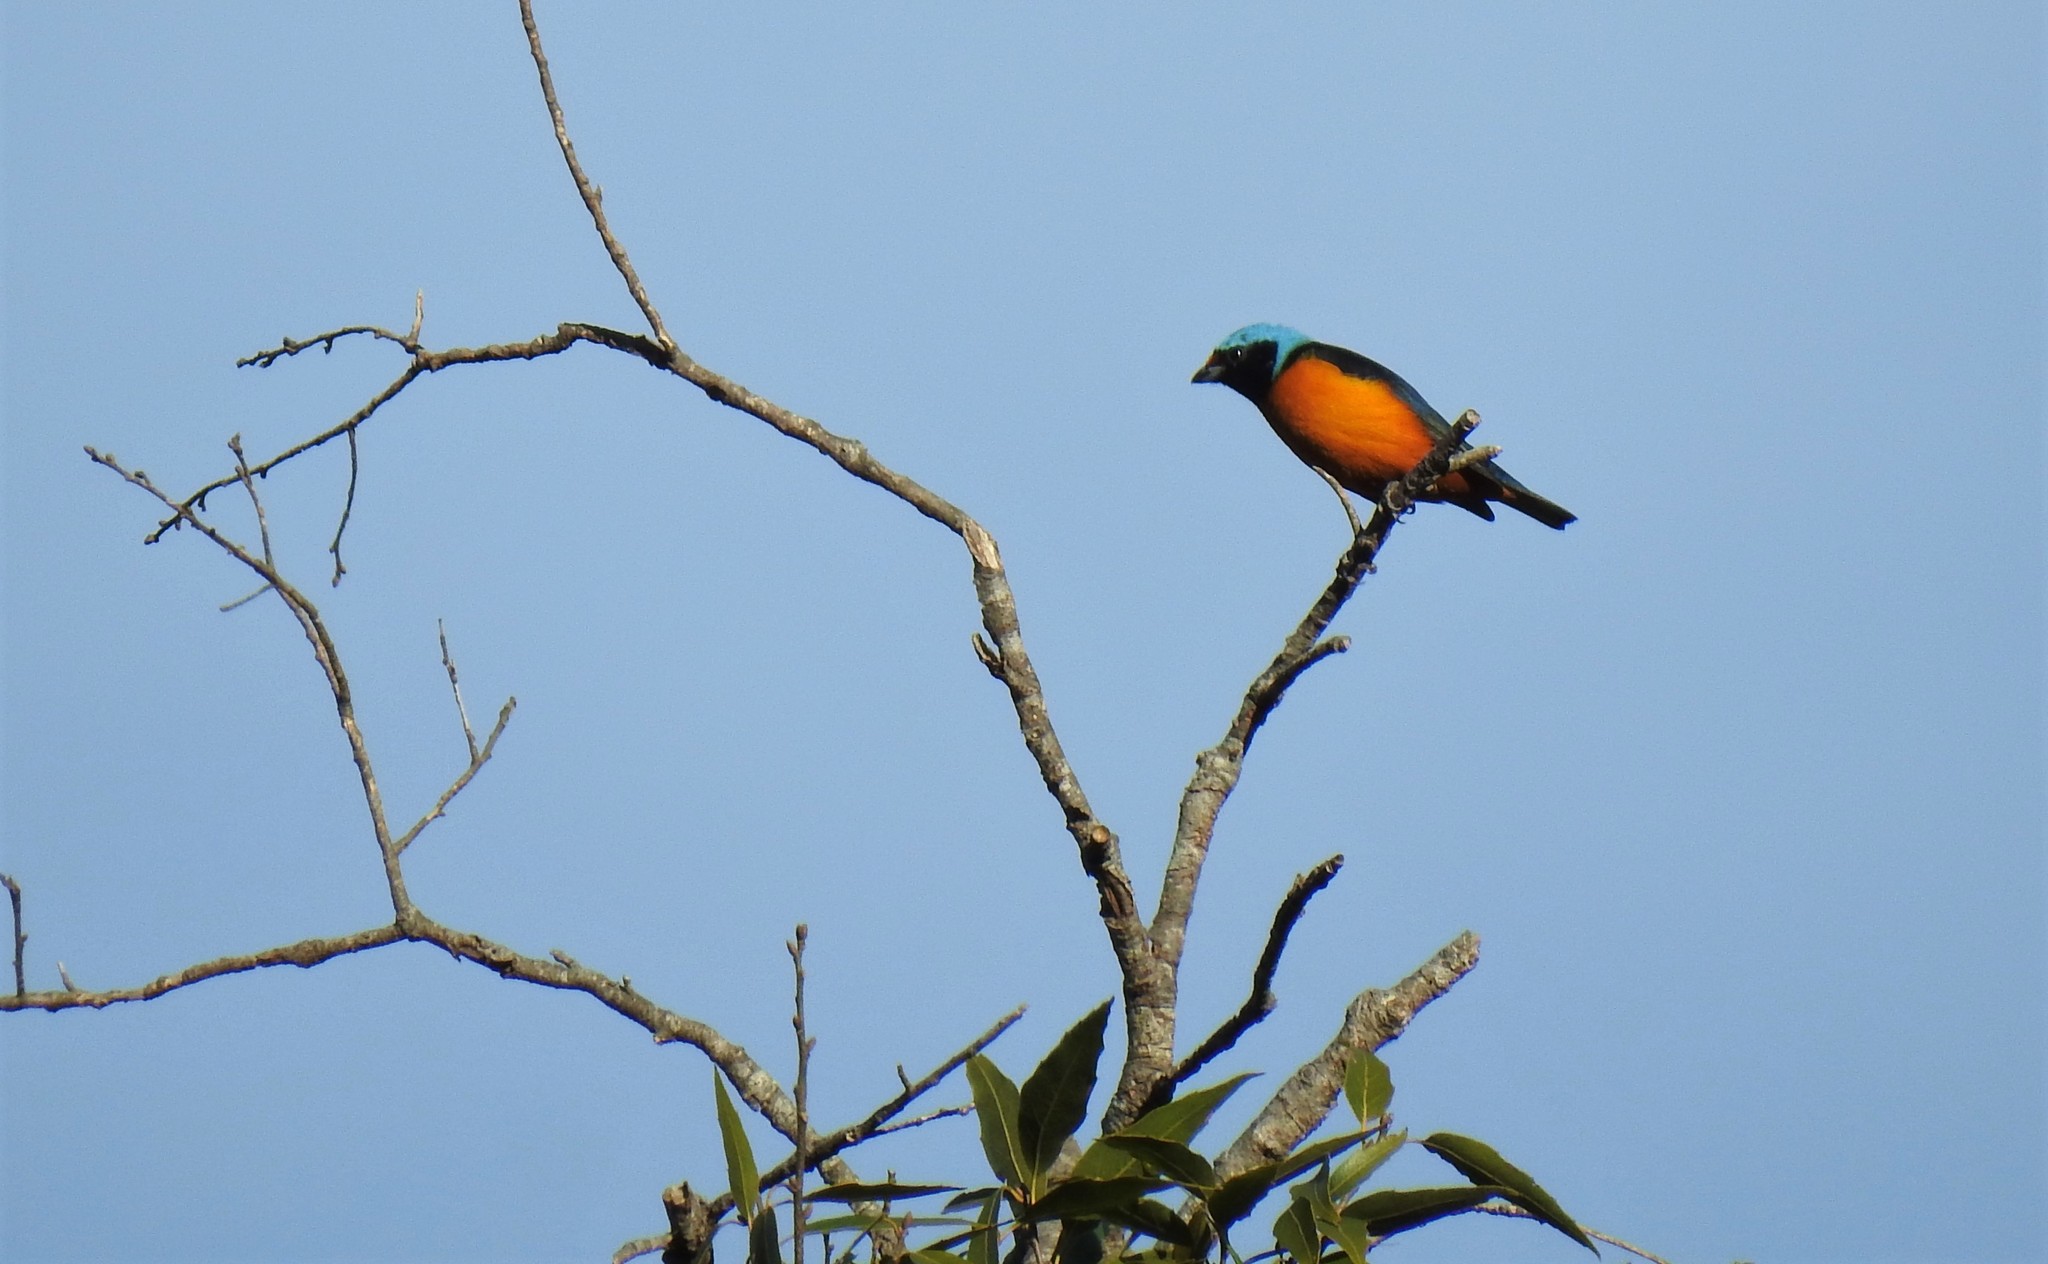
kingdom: Animalia
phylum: Chordata
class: Aves
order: Passeriformes
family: Fringillidae
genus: Euphonia
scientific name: Euphonia elegantissima
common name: Elegant euphonia
